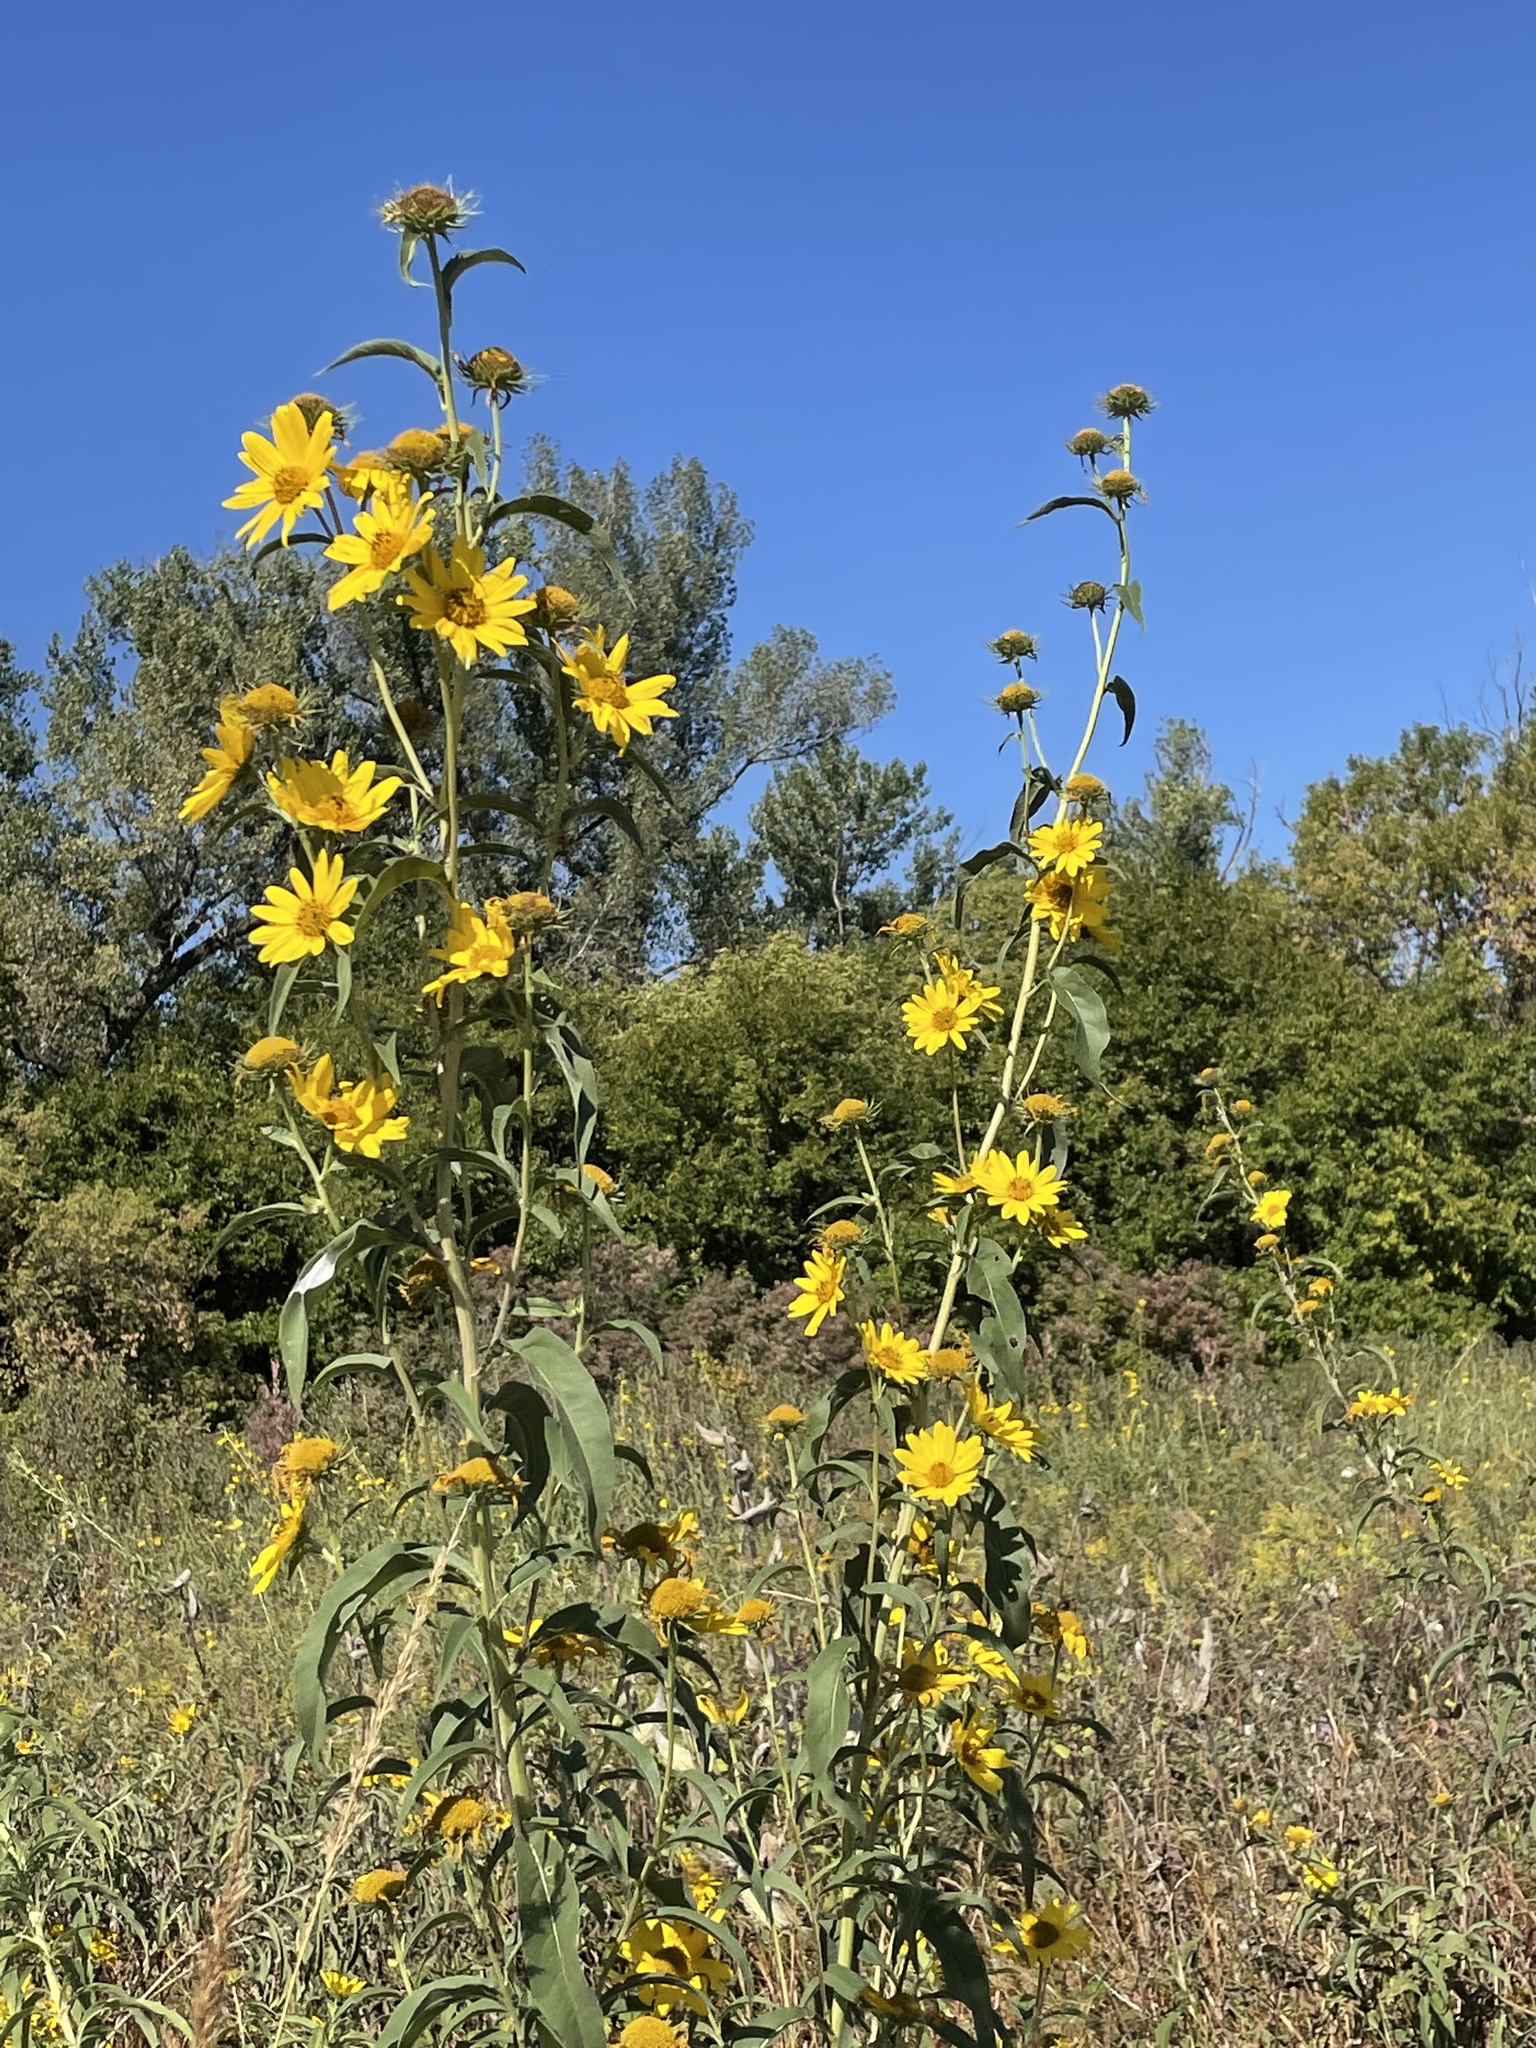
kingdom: Plantae
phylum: Tracheophyta
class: Magnoliopsida
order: Asterales
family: Asteraceae
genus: Helianthus
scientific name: Helianthus maximiliani
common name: Maximilian's sunflower
